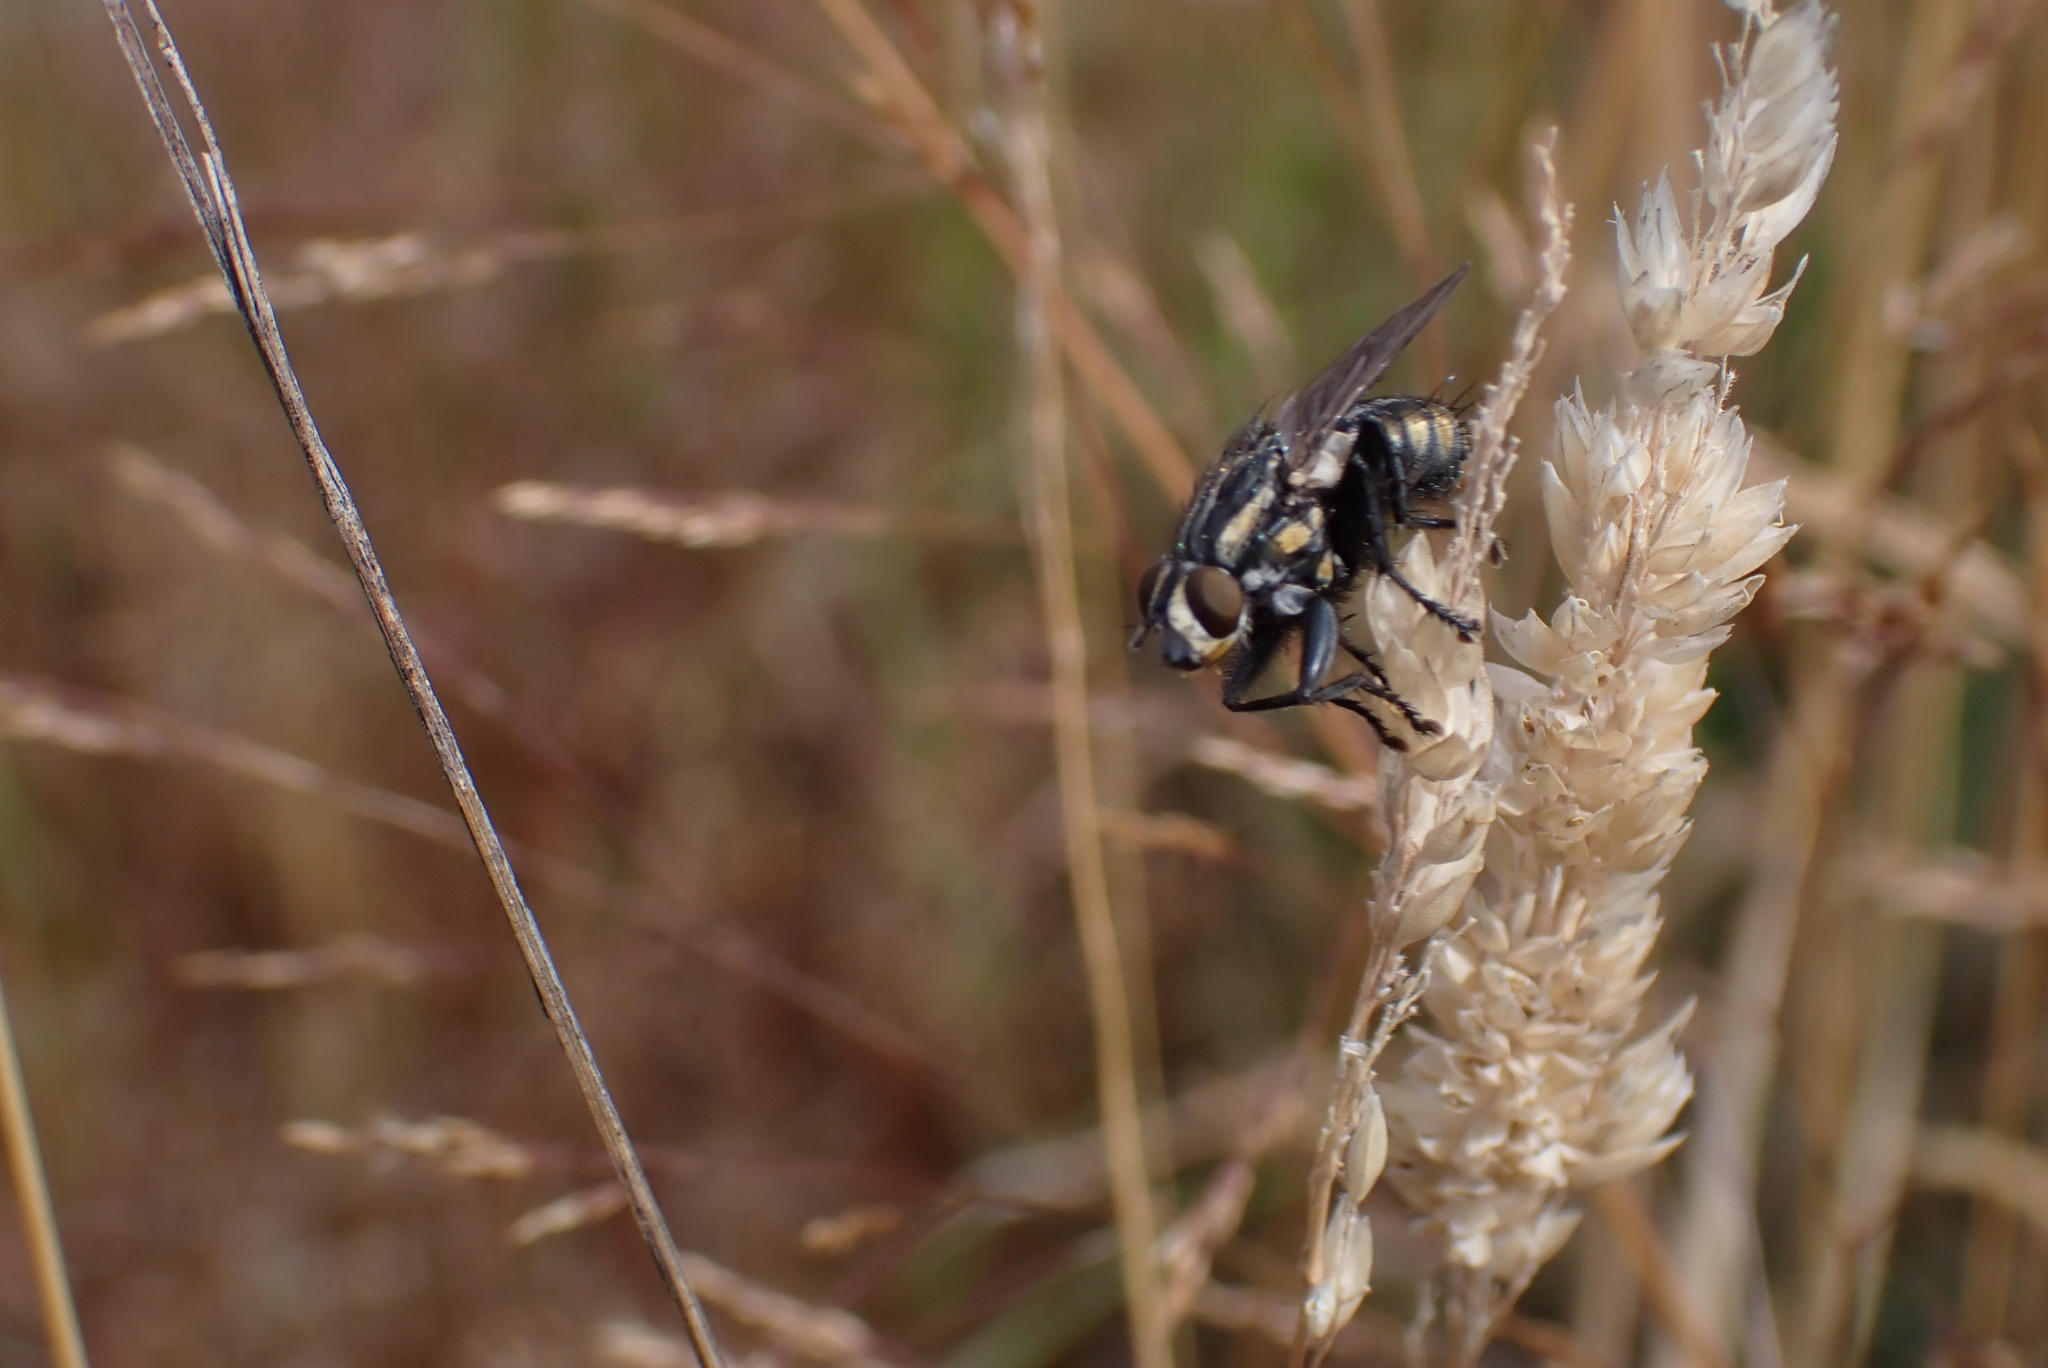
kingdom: Animalia
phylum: Arthropoda
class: Insecta
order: Diptera
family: Sarcophagidae
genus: Oxysarcodexia
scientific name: Oxysarcodexia varia
